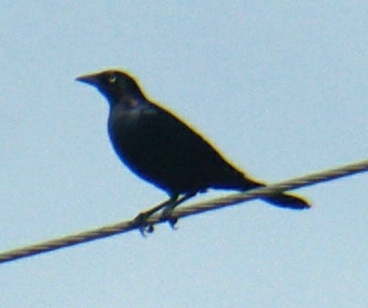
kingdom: Animalia
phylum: Chordata
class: Aves
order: Passeriformes
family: Icteridae
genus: Quiscalus
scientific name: Quiscalus quiscula
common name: Common grackle
